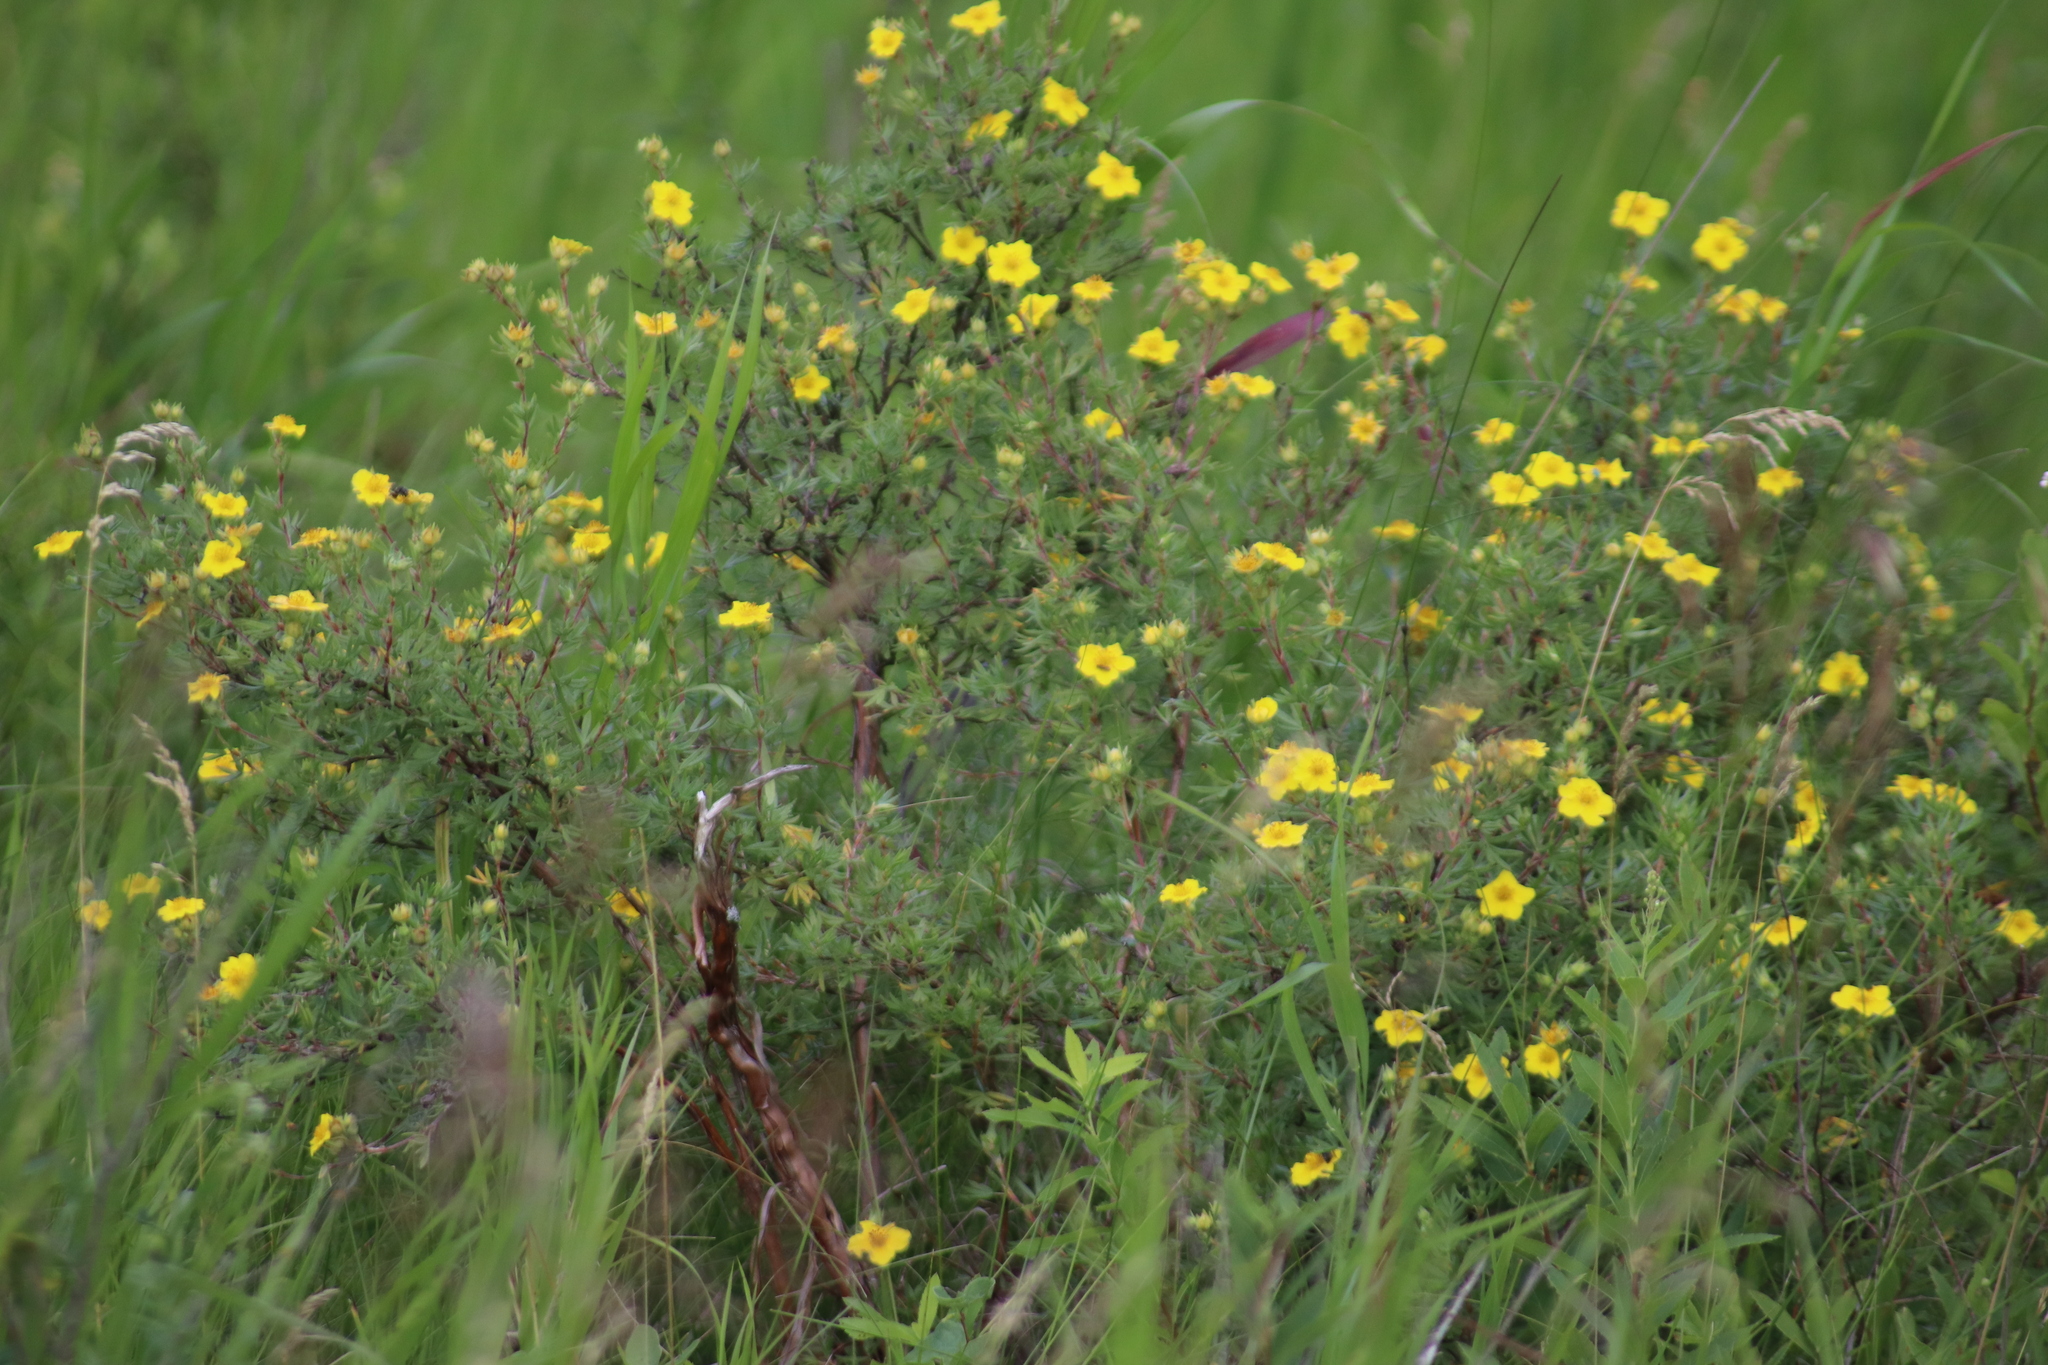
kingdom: Plantae
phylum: Tracheophyta
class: Magnoliopsida
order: Rosales
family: Rosaceae
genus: Dasiphora
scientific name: Dasiphora fruticosa
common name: Shrubby cinquefoil
